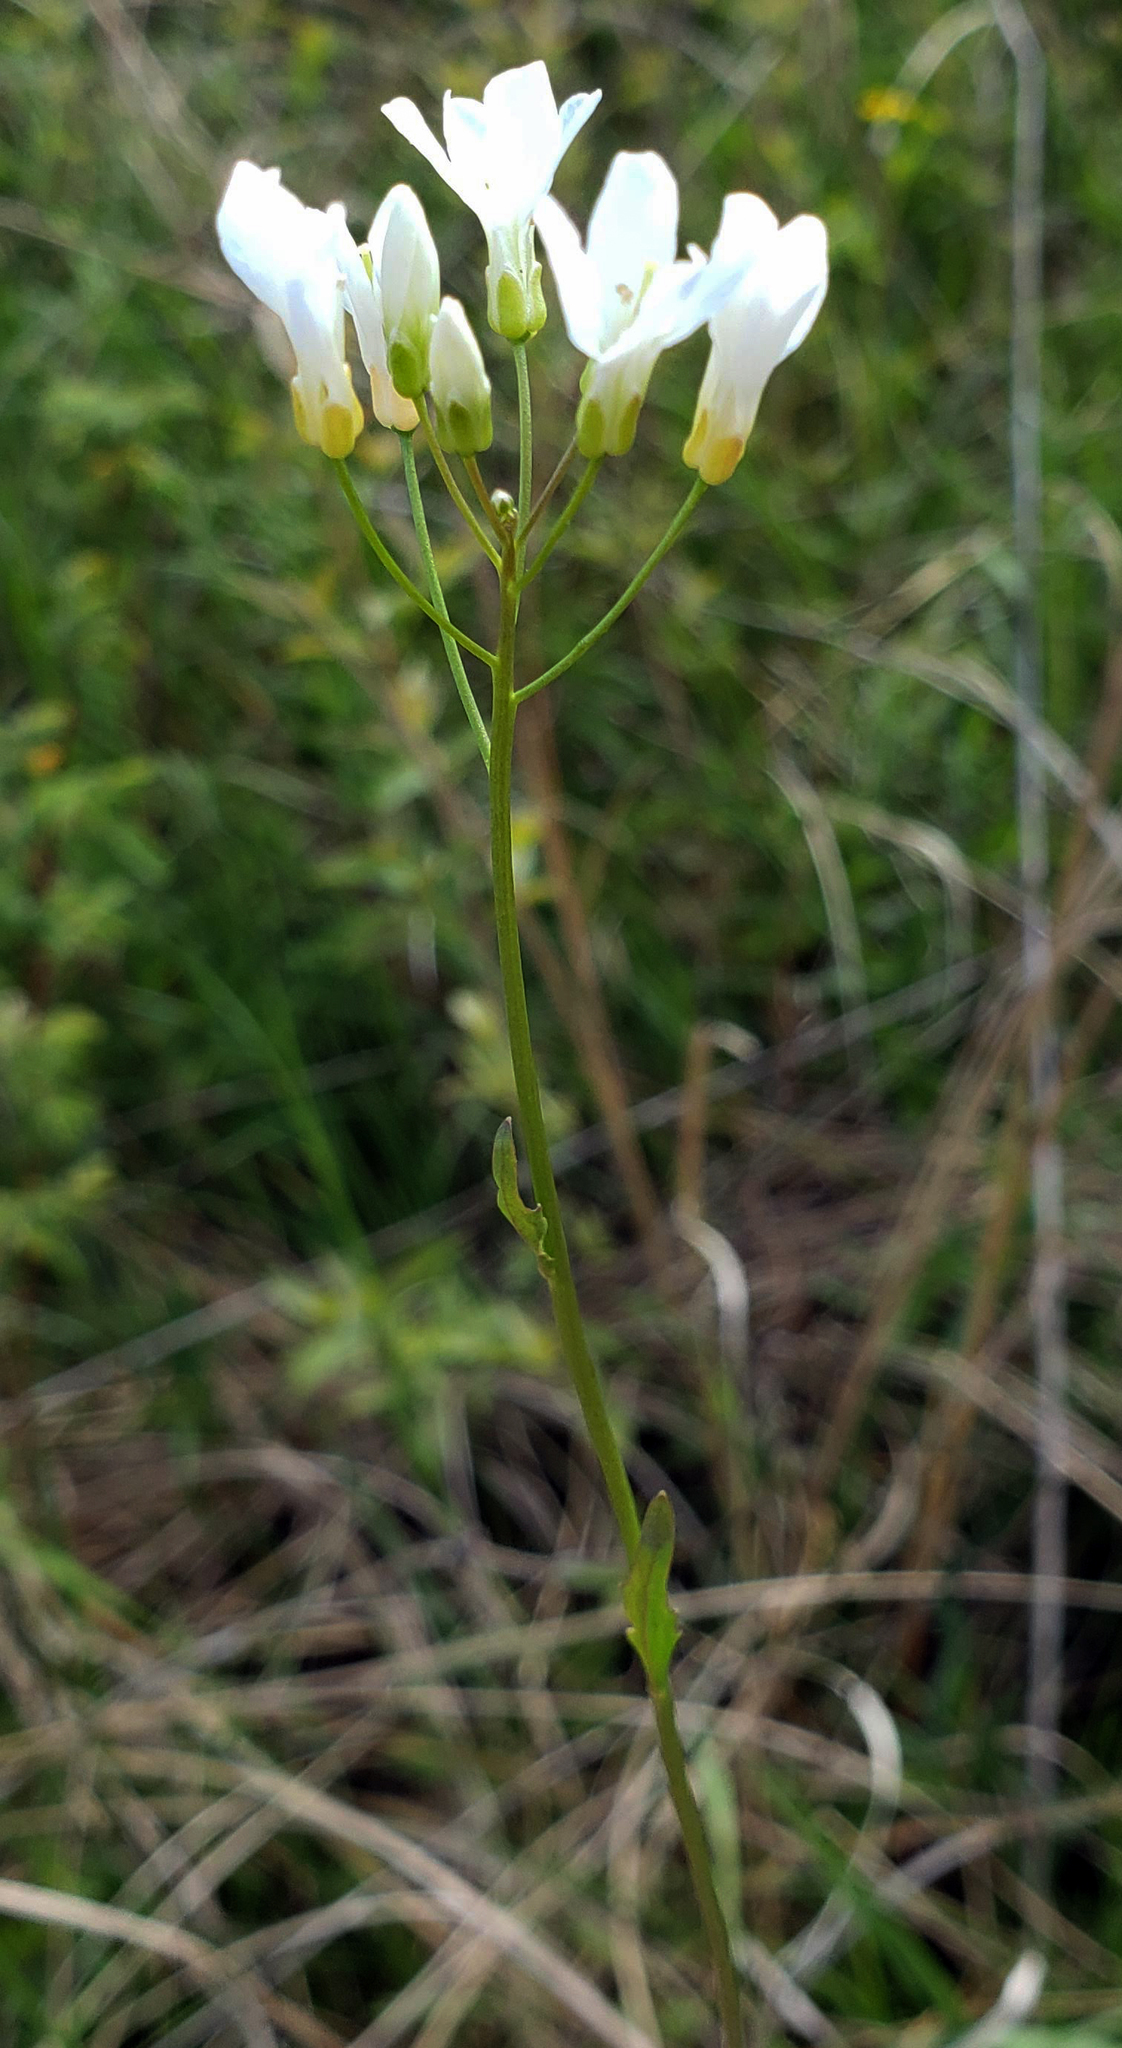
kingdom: Plantae
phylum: Tracheophyta
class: Magnoliopsida
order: Brassicales
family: Brassicaceae
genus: Cardamine
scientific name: Cardamine bulbosa
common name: Spring cress
